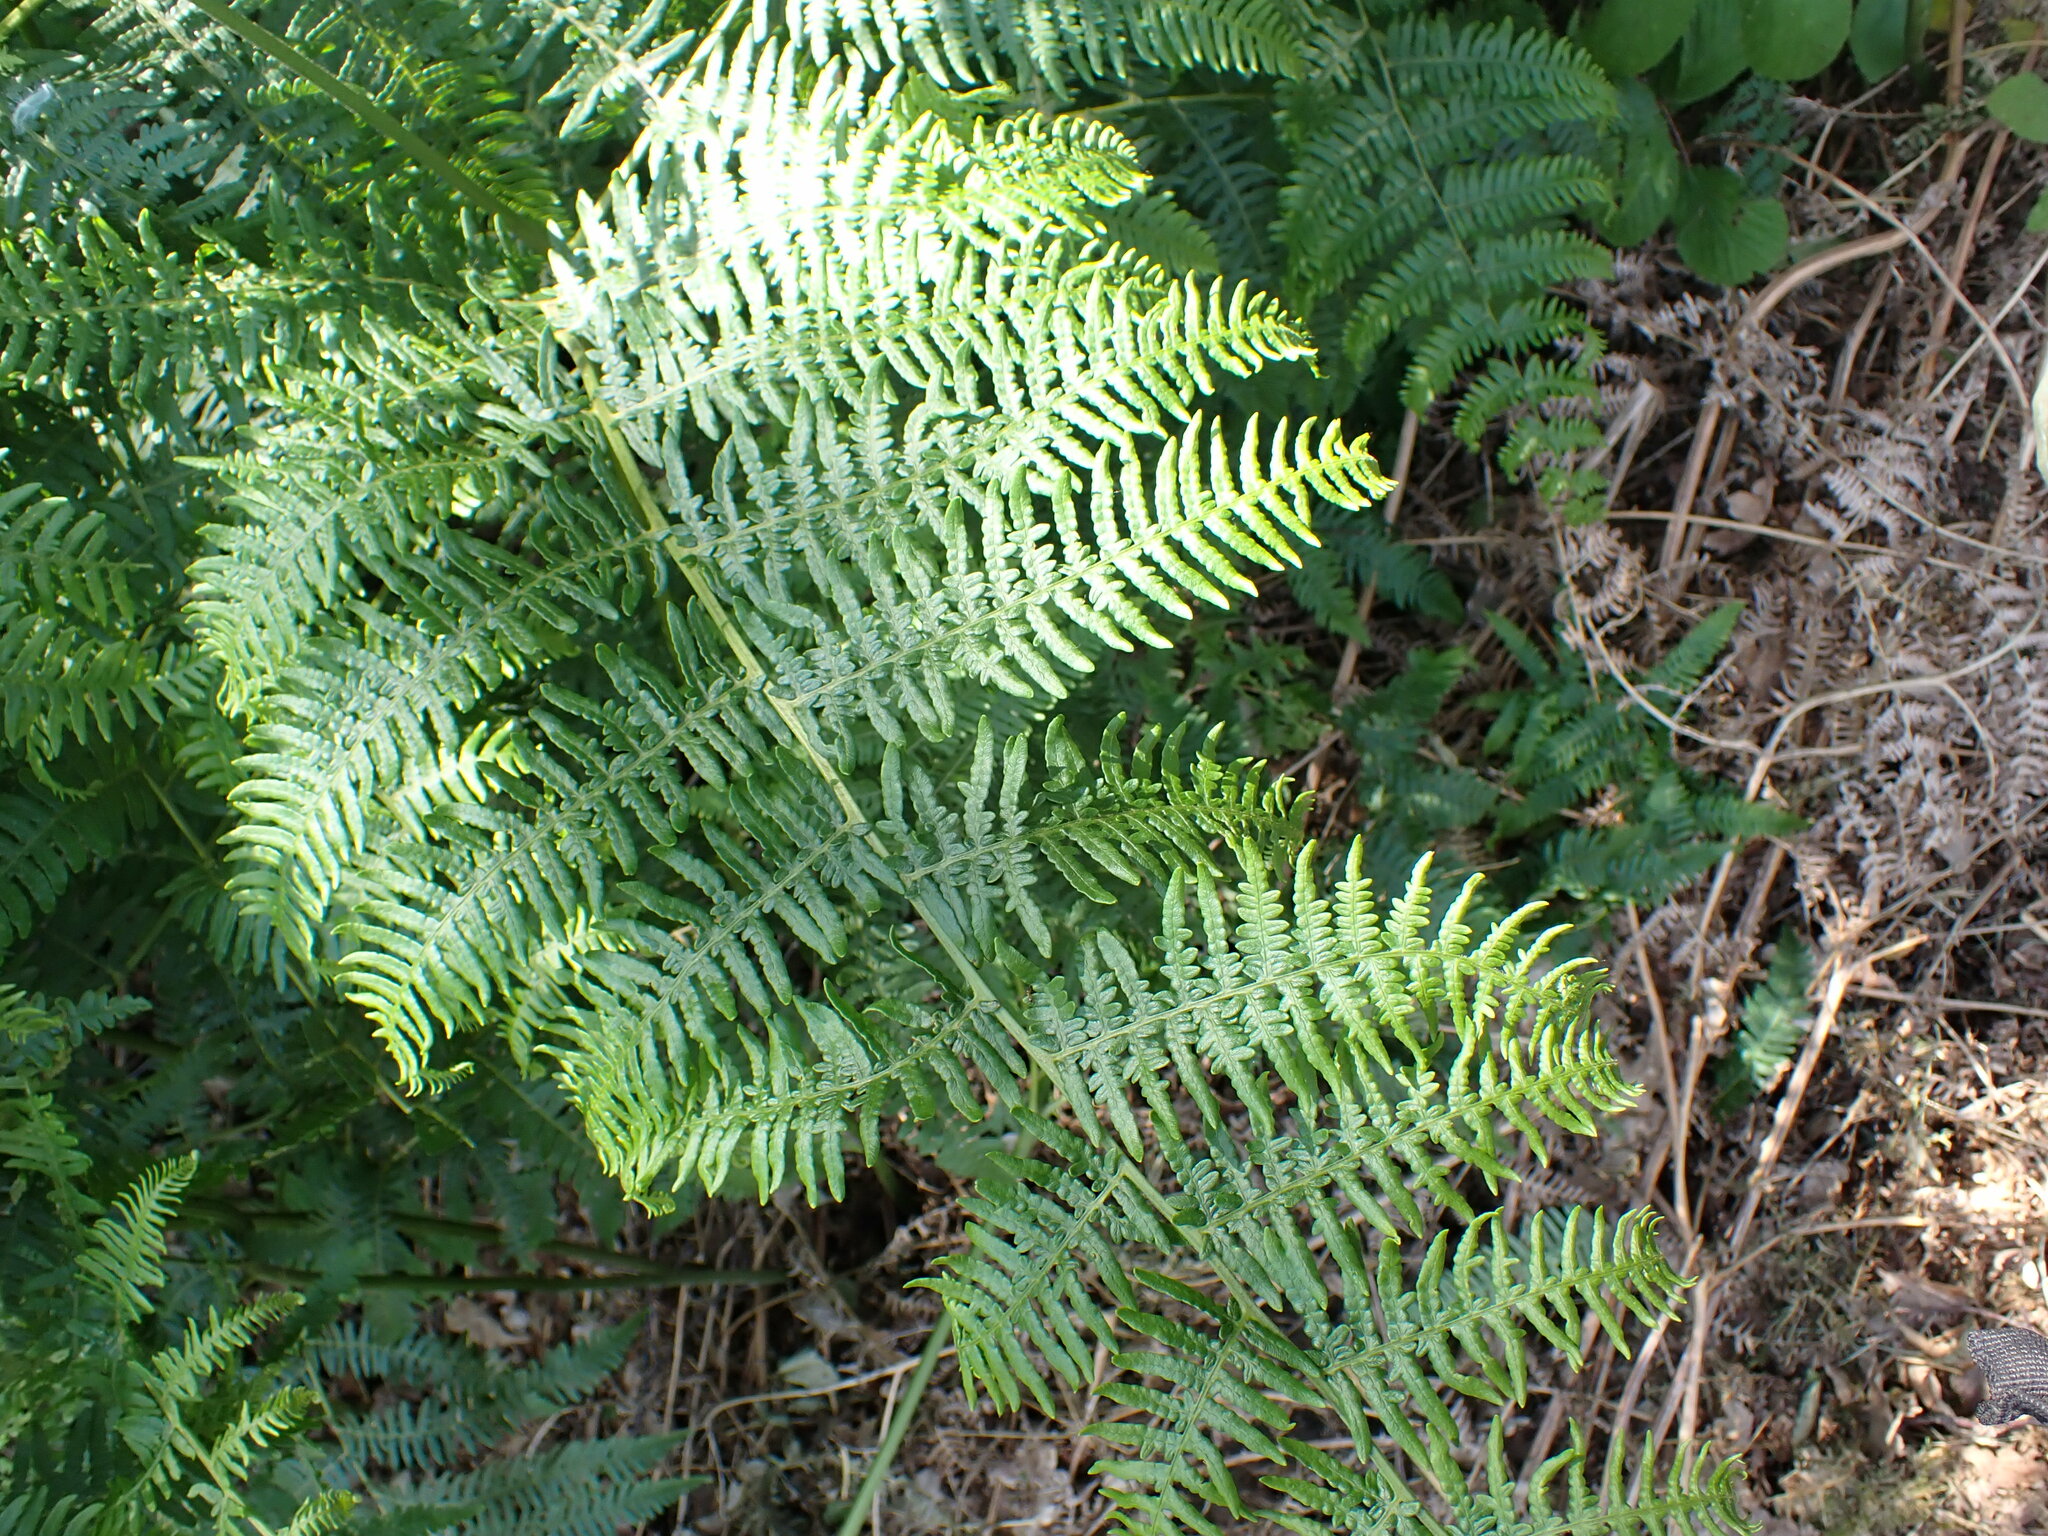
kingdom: Plantae
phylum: Tracheophyta
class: Polypodiopsida
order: Polypodiales
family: Dennstaedtiaceae
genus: Pteridium
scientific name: Pteridium aquilinum
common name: Bracken
